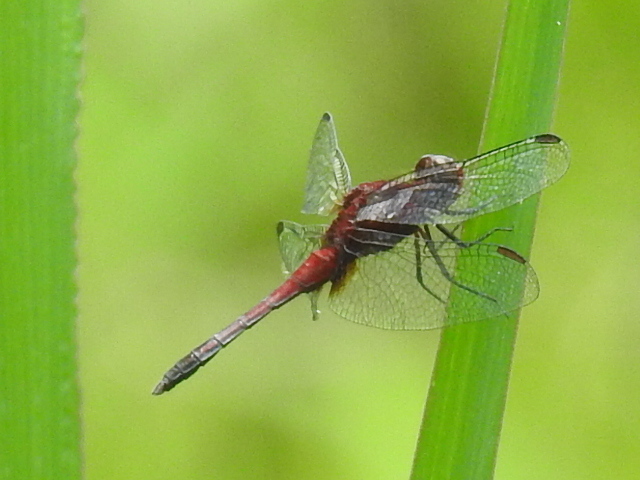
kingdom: Animalia
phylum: Arthropoda
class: Insecta
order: Odonata
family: Libellulidae
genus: Erythrodiplax
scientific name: Erythrodiplax fusca
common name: Red-faced dragonlet
